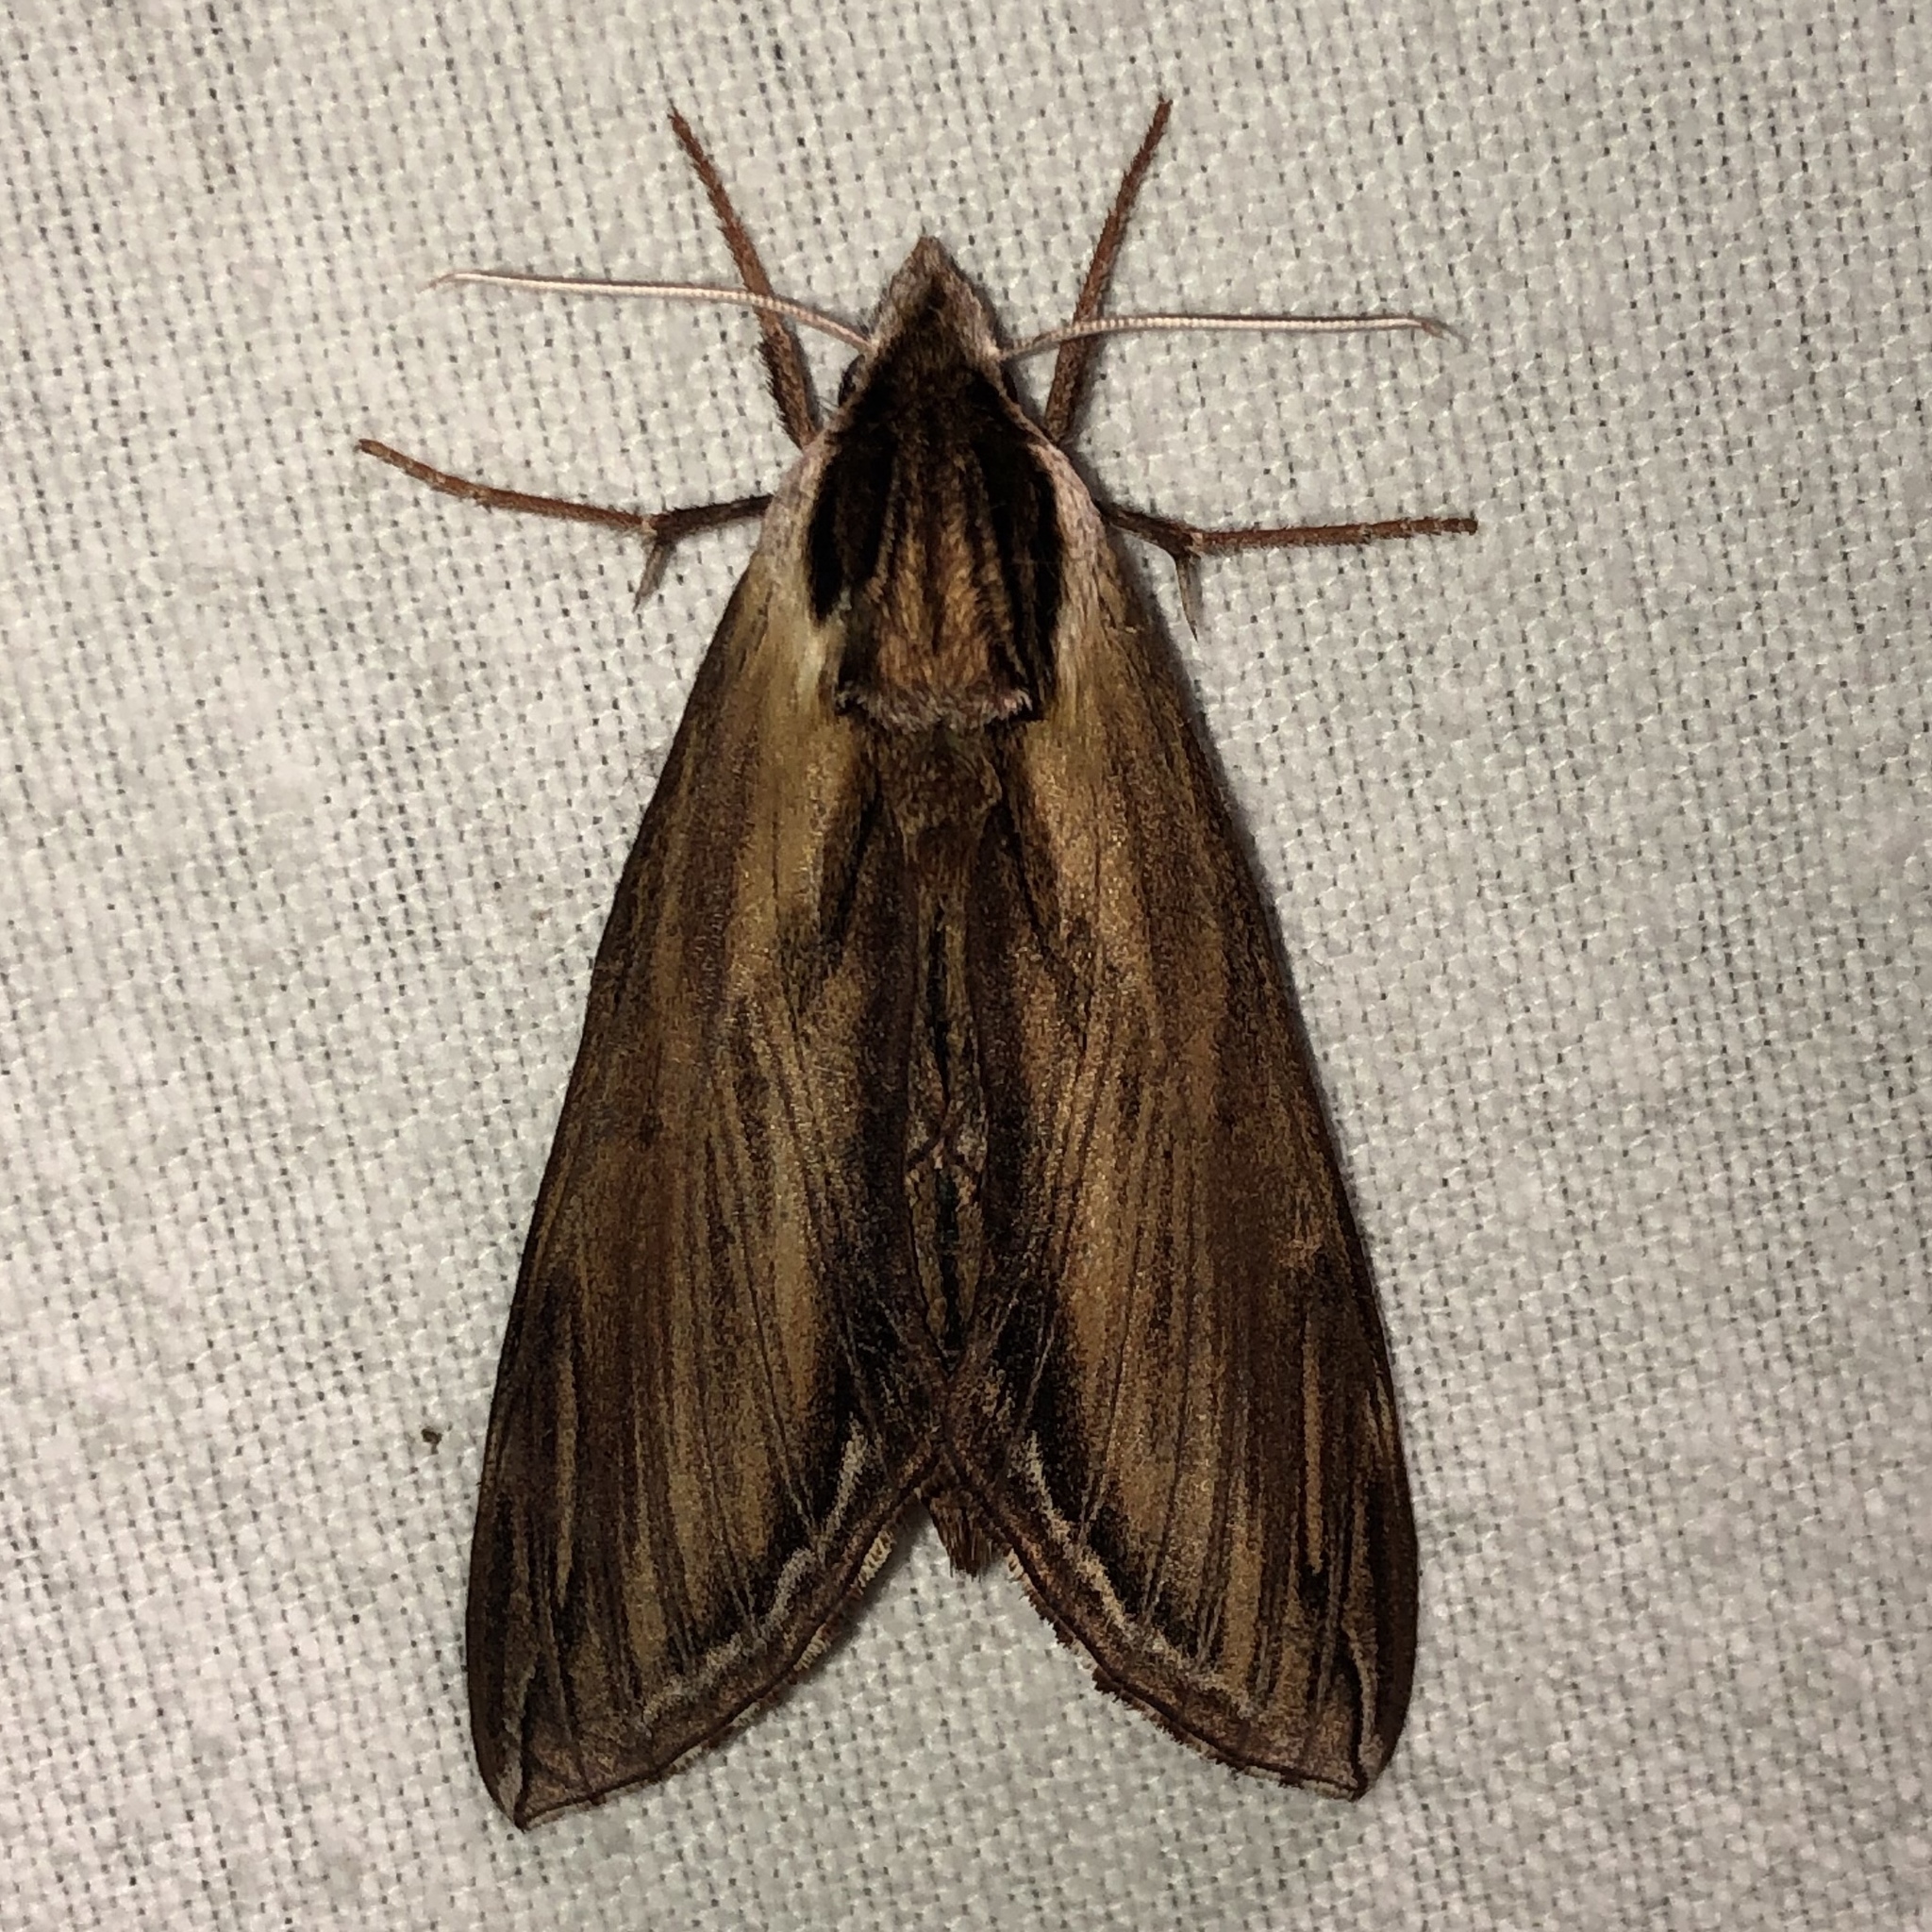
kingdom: Animalia
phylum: Arthropoda
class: Insecta
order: Lepidoptera
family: Sphingidae
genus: Sphinx
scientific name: Sphinx kalmiae
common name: Laurel sphinx
